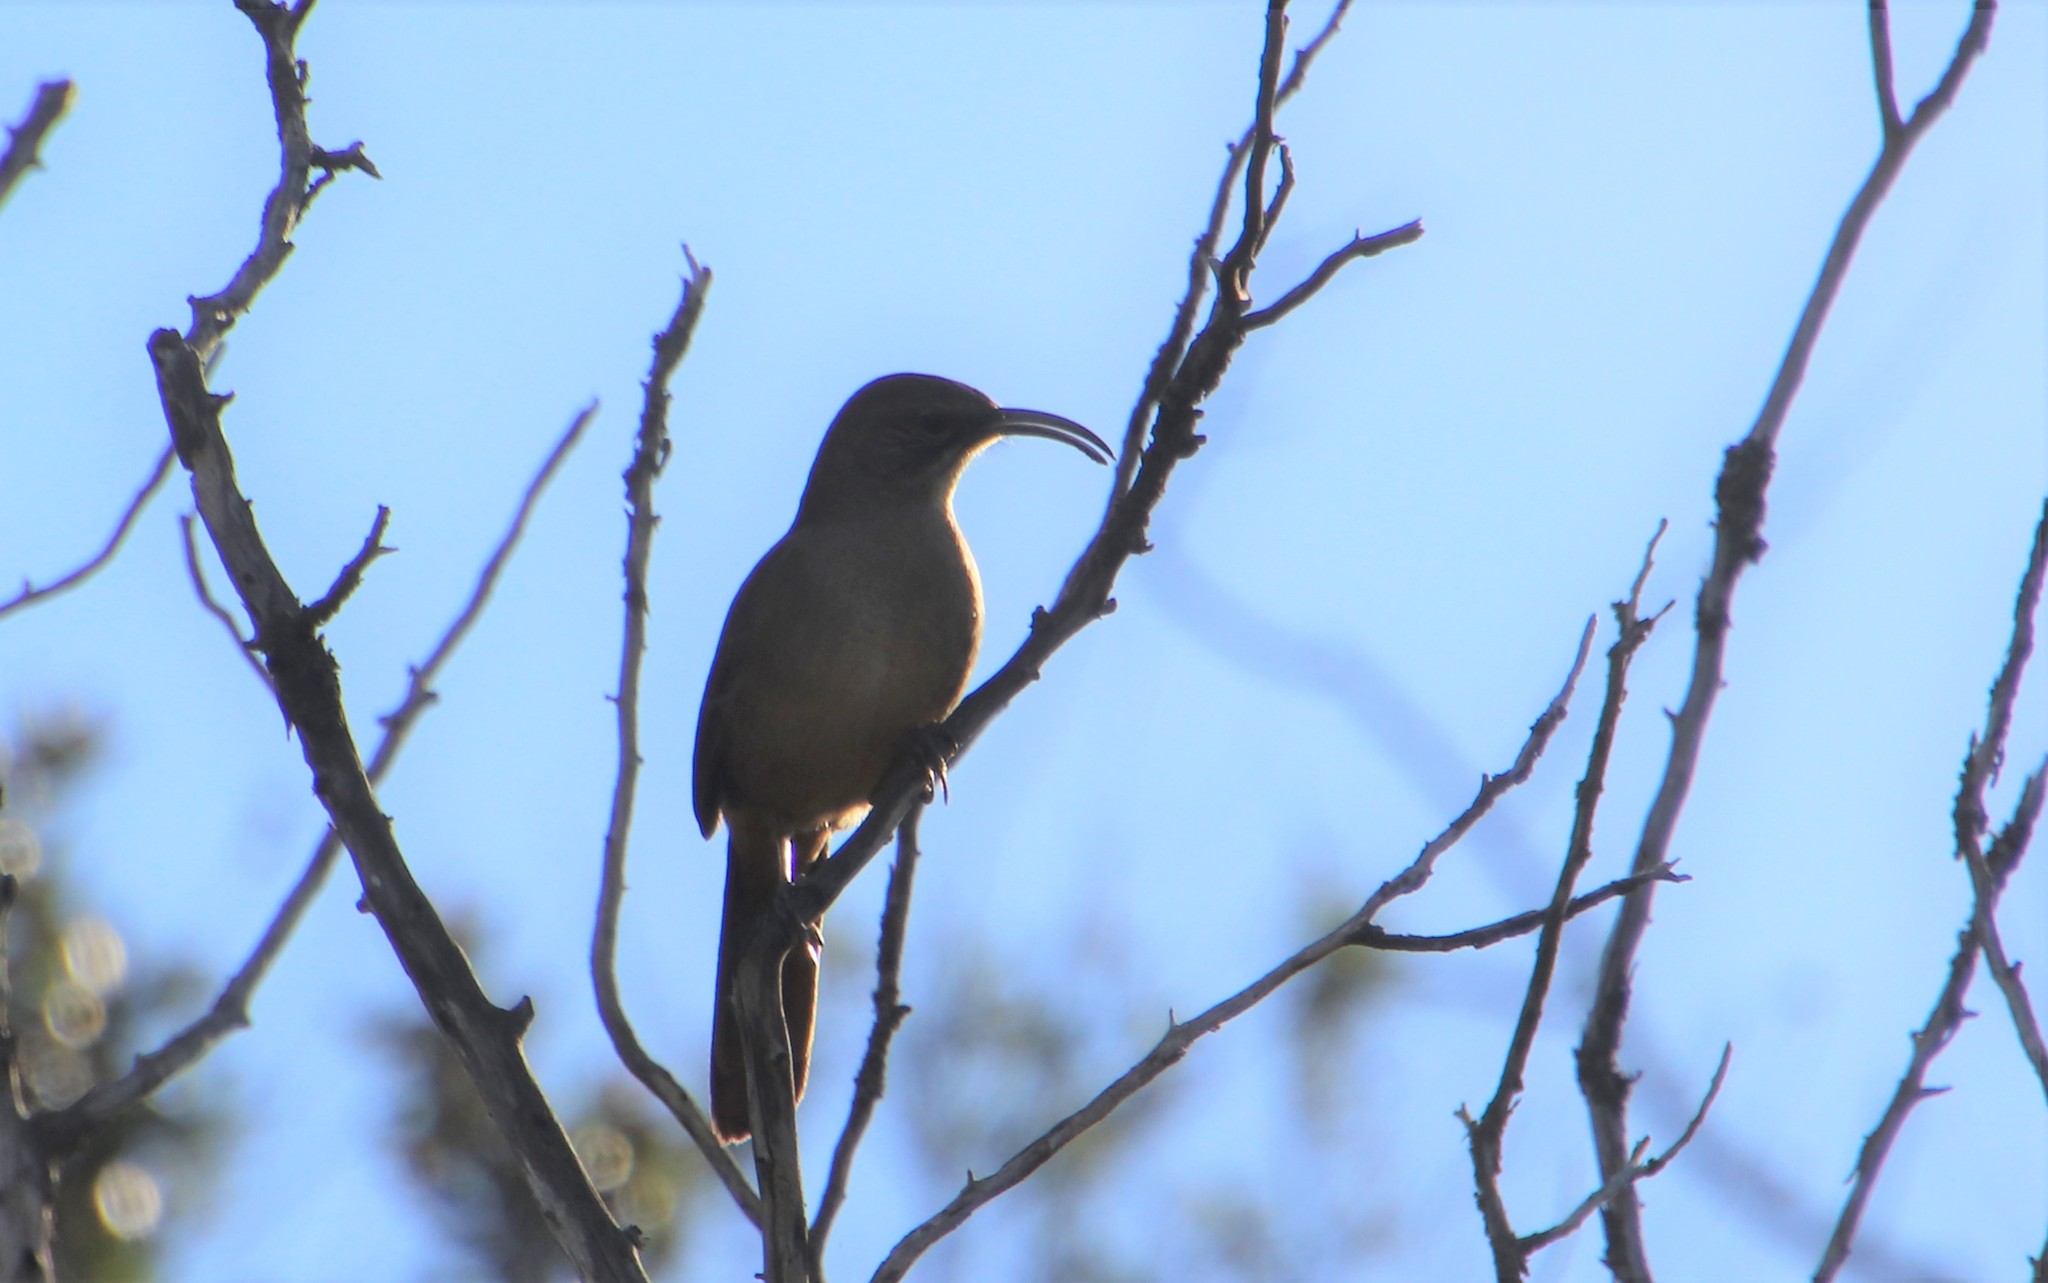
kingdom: Animalia
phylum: Chordata
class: Aves
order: Passeriformes
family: Mimidae
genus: Toxostoma
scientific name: Toxostoma redivivum
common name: California thrasher
